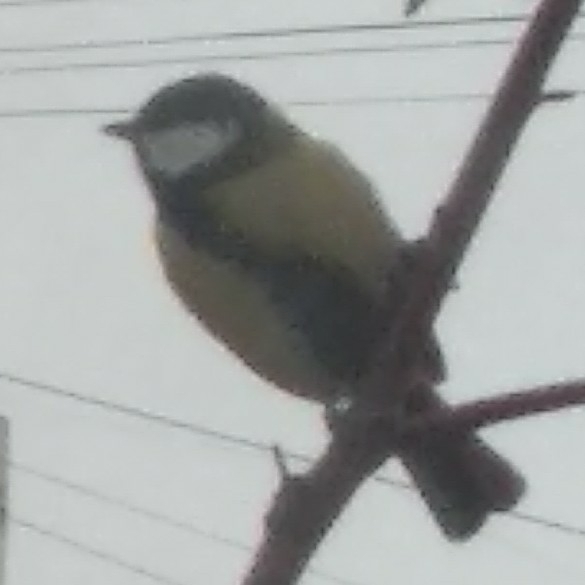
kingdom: Animalia
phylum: Chordata
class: Aves
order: Passeriformes
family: Paridae
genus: Parus
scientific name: Parus major
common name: Great tit
